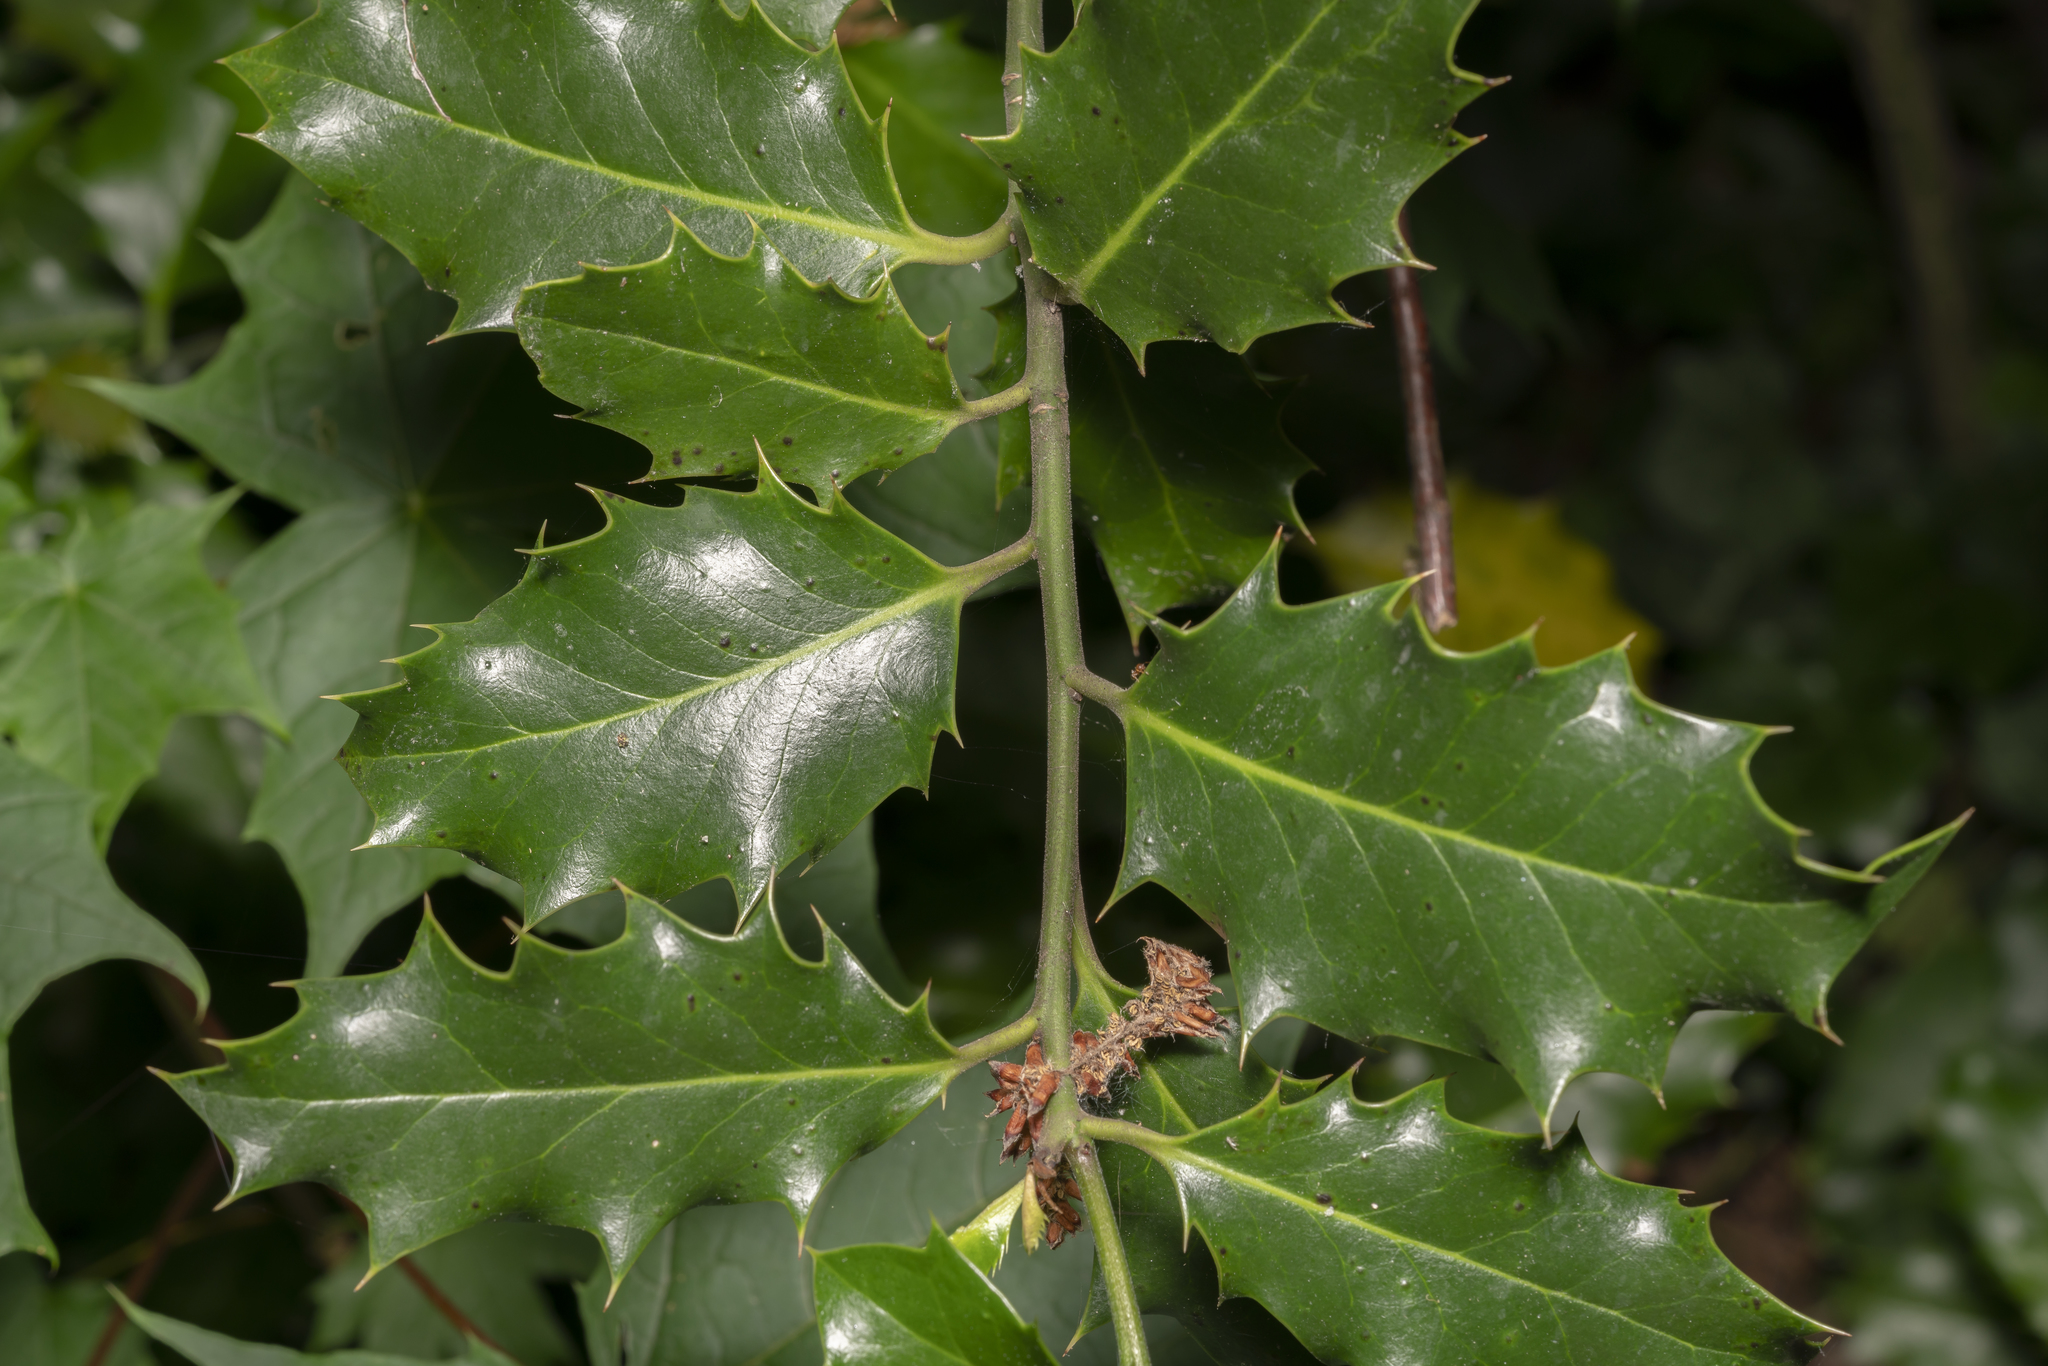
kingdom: Plantae
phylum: Tracheophyta
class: Magnoliopsida
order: Aquifoliales
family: Aquifoliaceae
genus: Ilex
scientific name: Ilex aquifolium
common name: English holly
